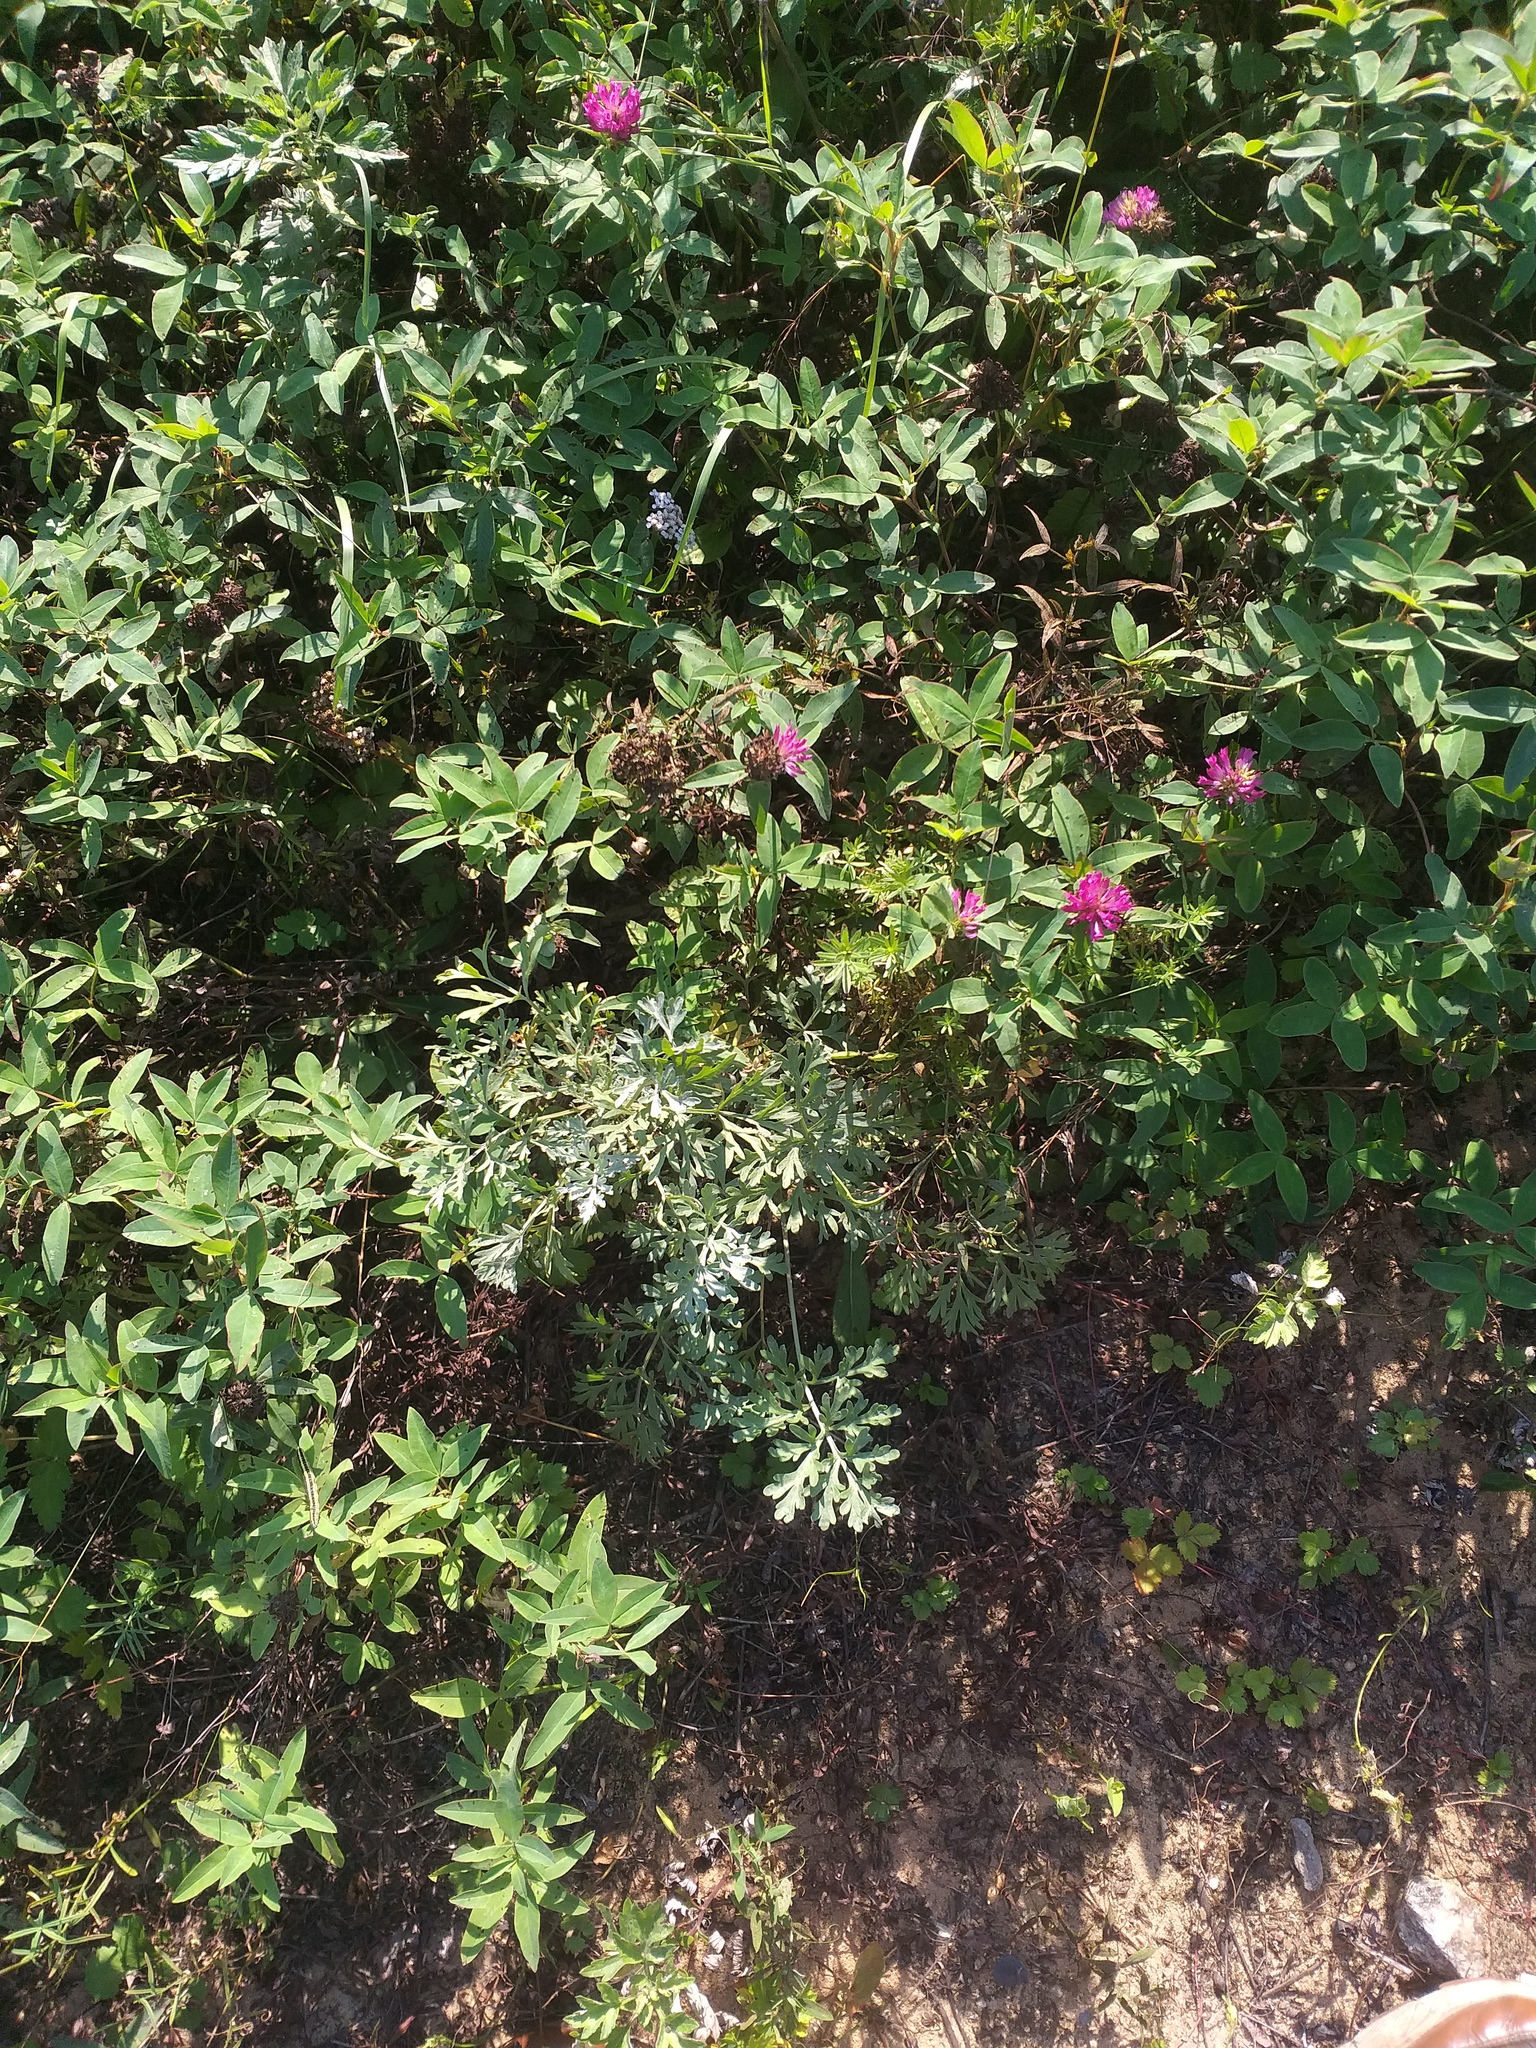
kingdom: Plantae
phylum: Tracheophyta
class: Magnoliopsida
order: Asterales
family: Asteraceae
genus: Artemisia
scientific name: Artemisia absinthium
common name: Wormwood
